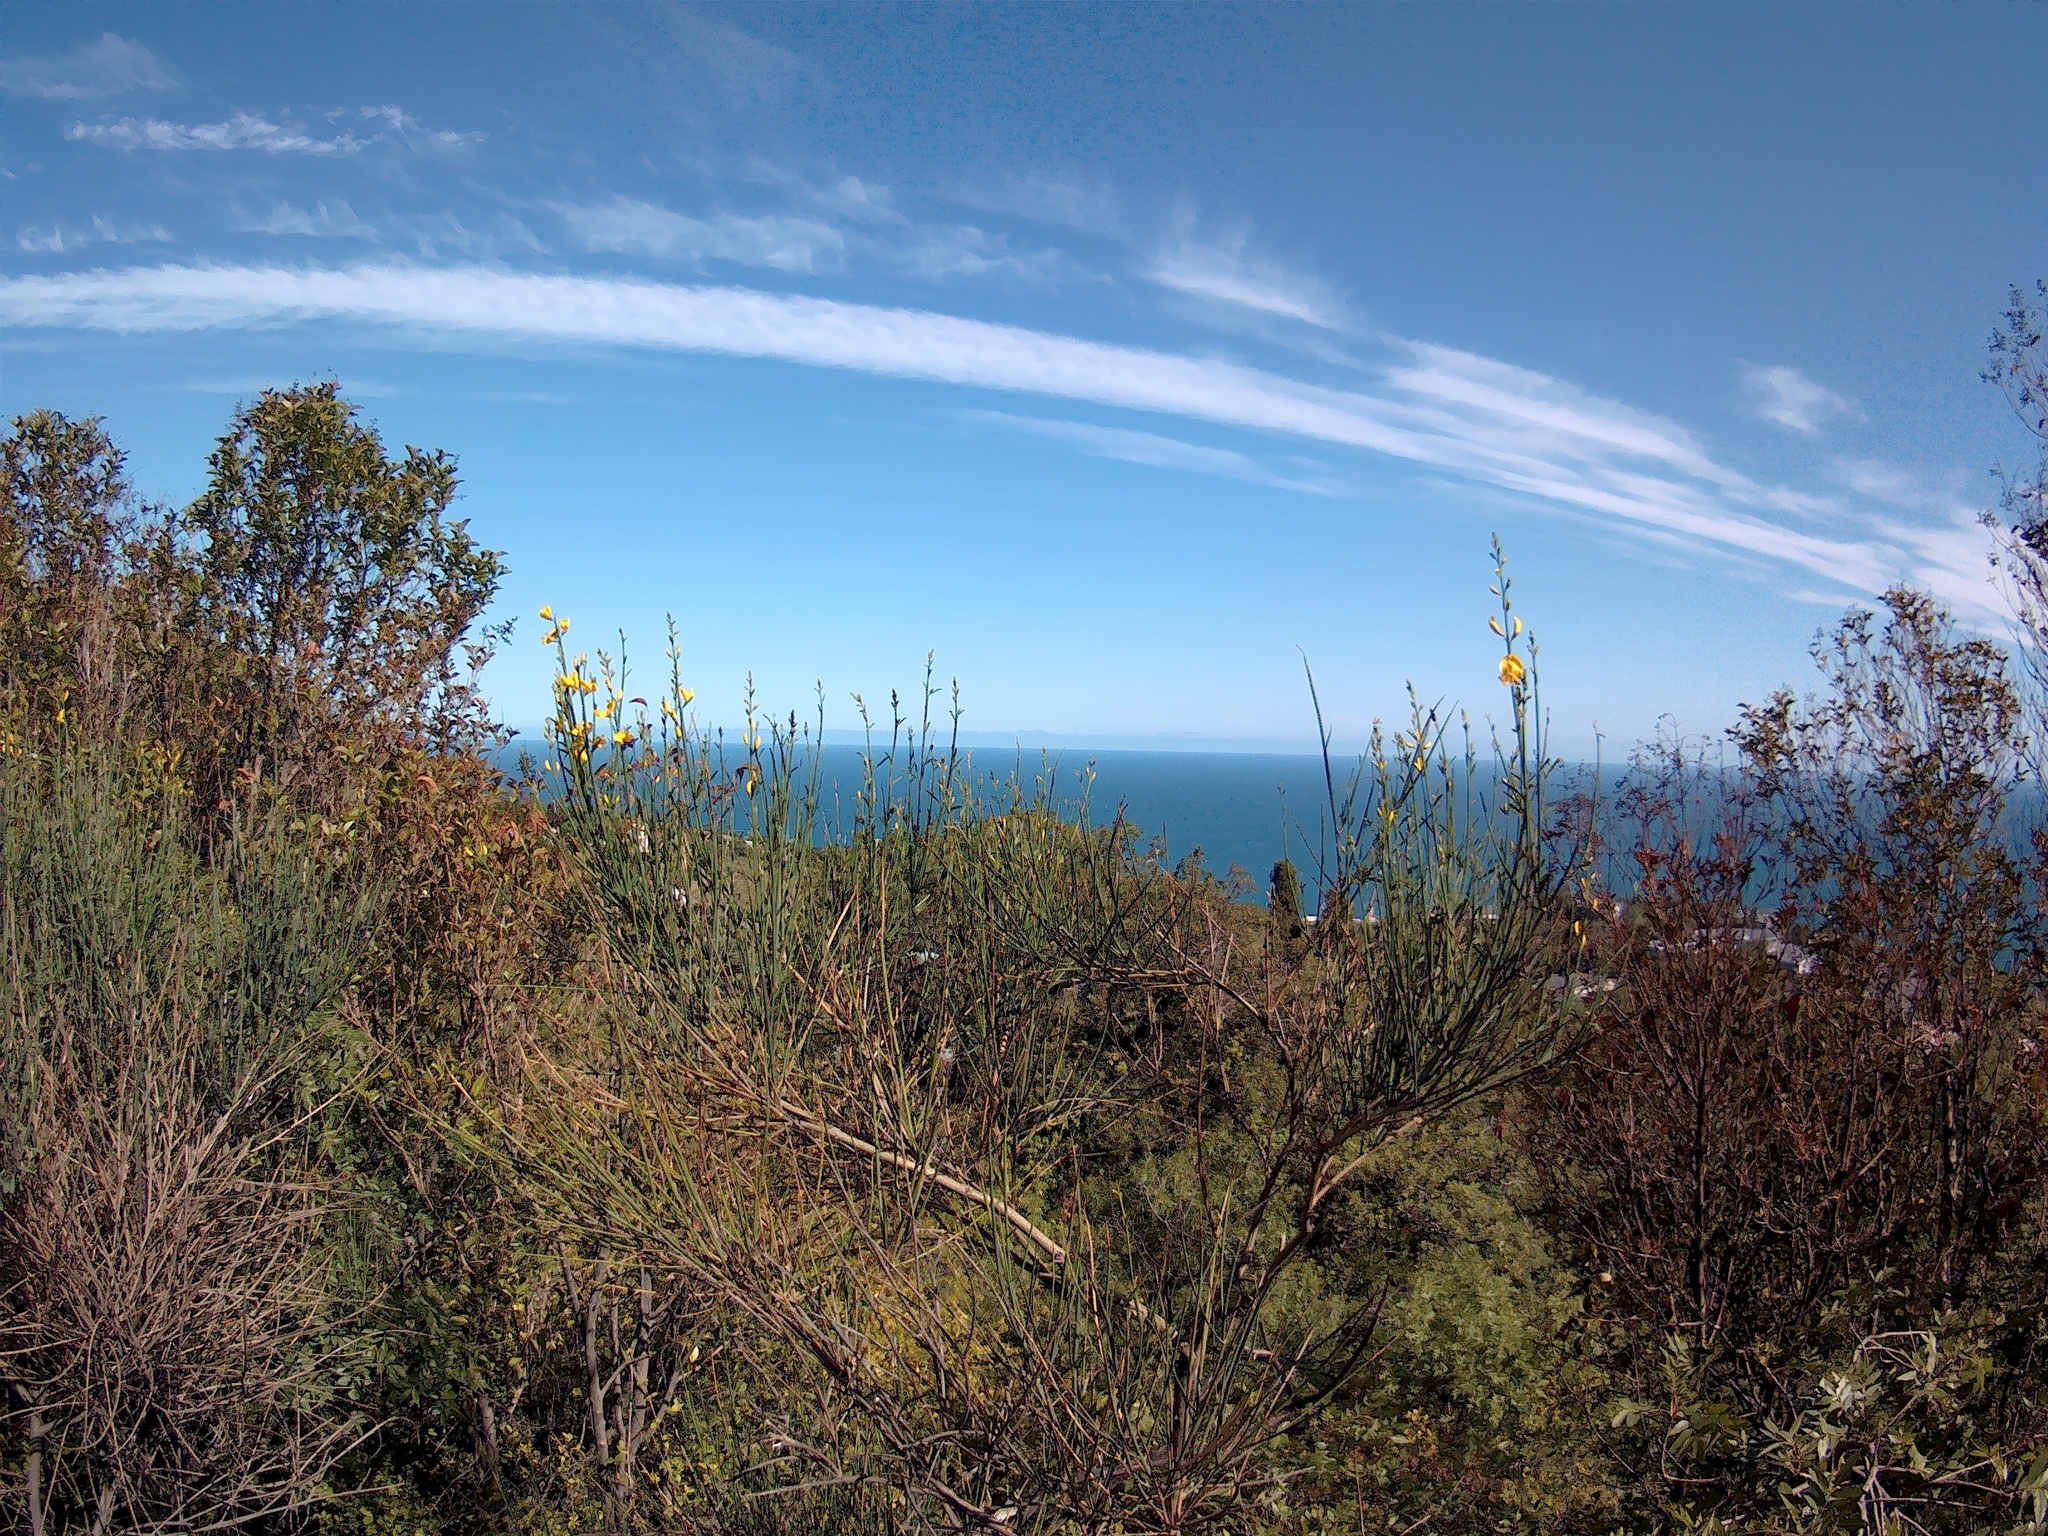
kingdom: Plantae
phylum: Tracheophyta
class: Magnoliopsida
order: Fabales
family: Fabaceae
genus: Spartium
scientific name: Spartium junceum
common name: Spanish broom
